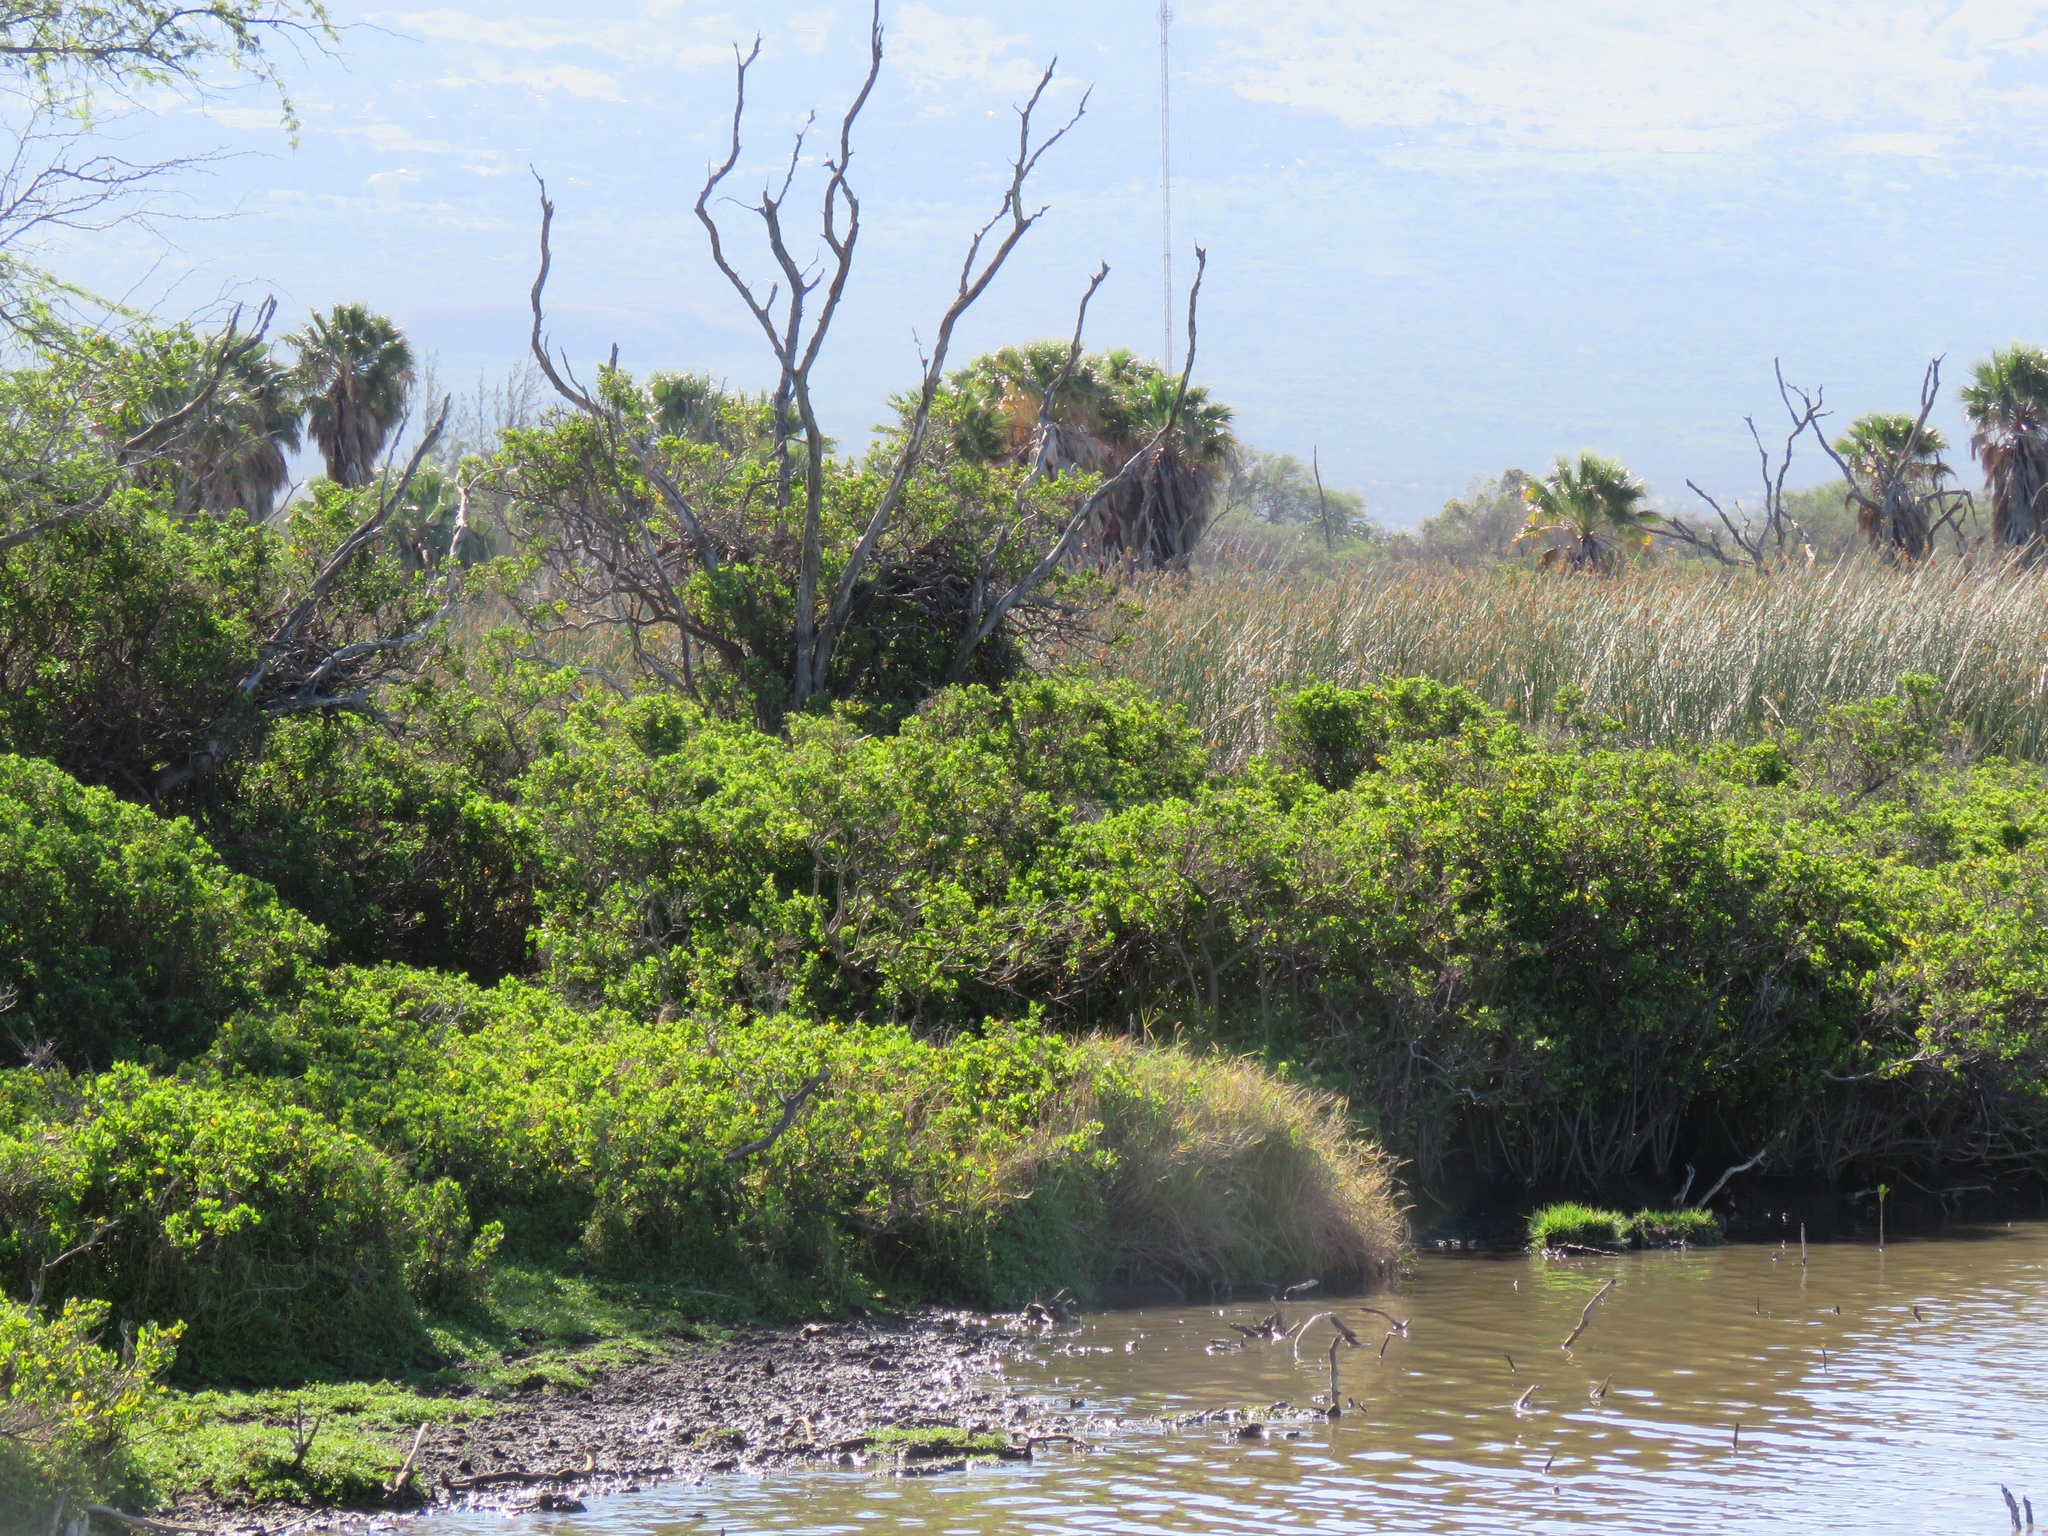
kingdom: Plantae
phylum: Tracheophyta
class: Magnoliopsida
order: Asterales
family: Asteraceae
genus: Pluchea
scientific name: Pluchea indica
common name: Indian fleabane
